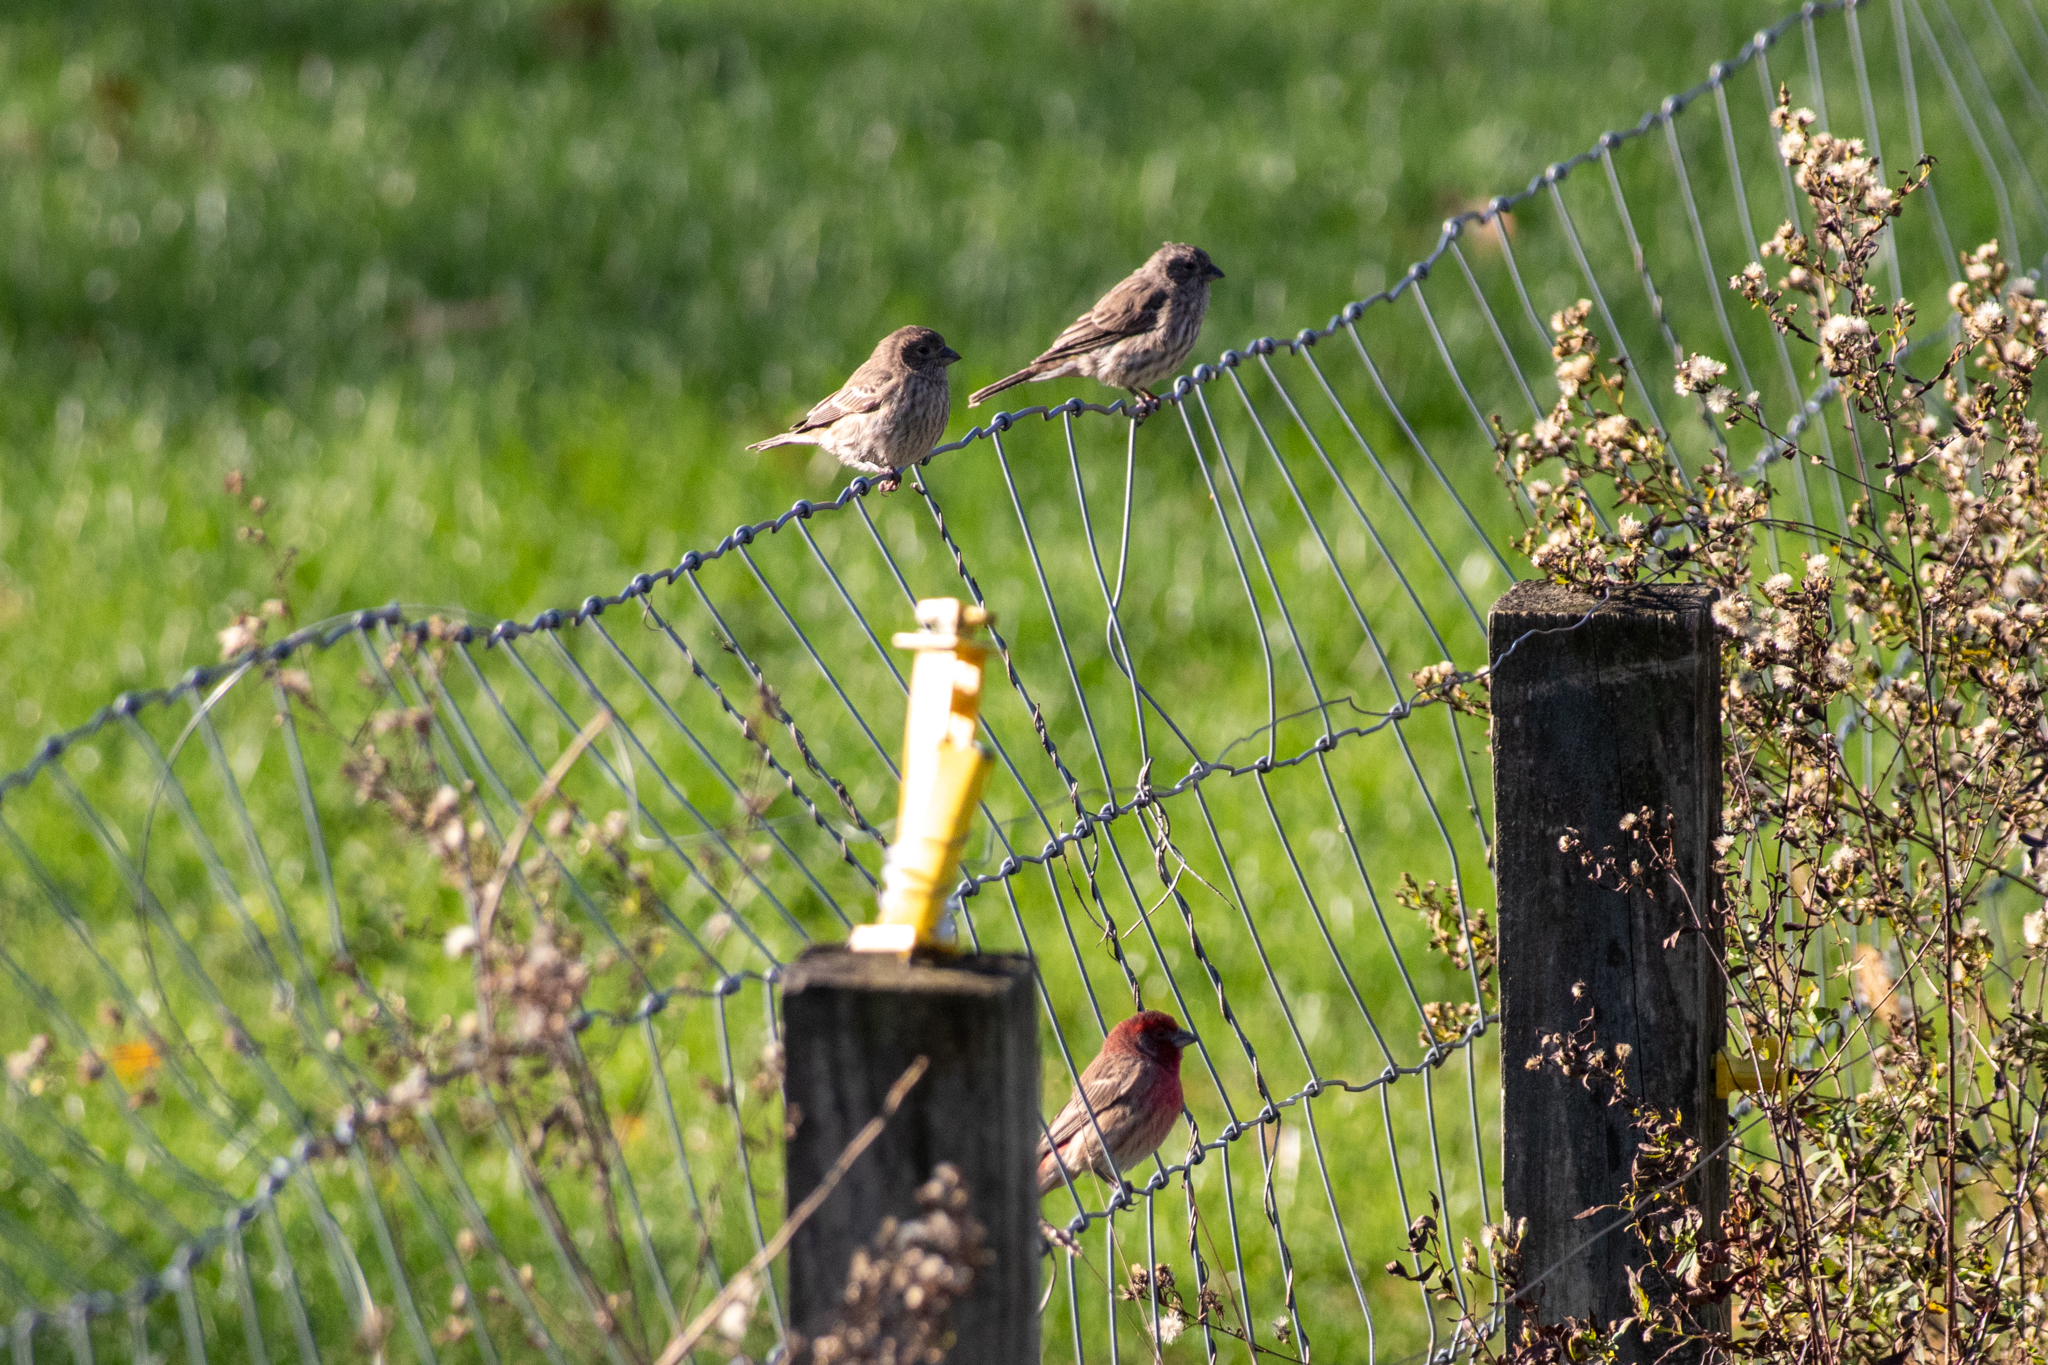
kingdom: Animalia
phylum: Chordata
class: Aves
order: Passeriformes
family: Fringillidae
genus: Haemorhous
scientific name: Haemorhous mexicanus
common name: House finch
